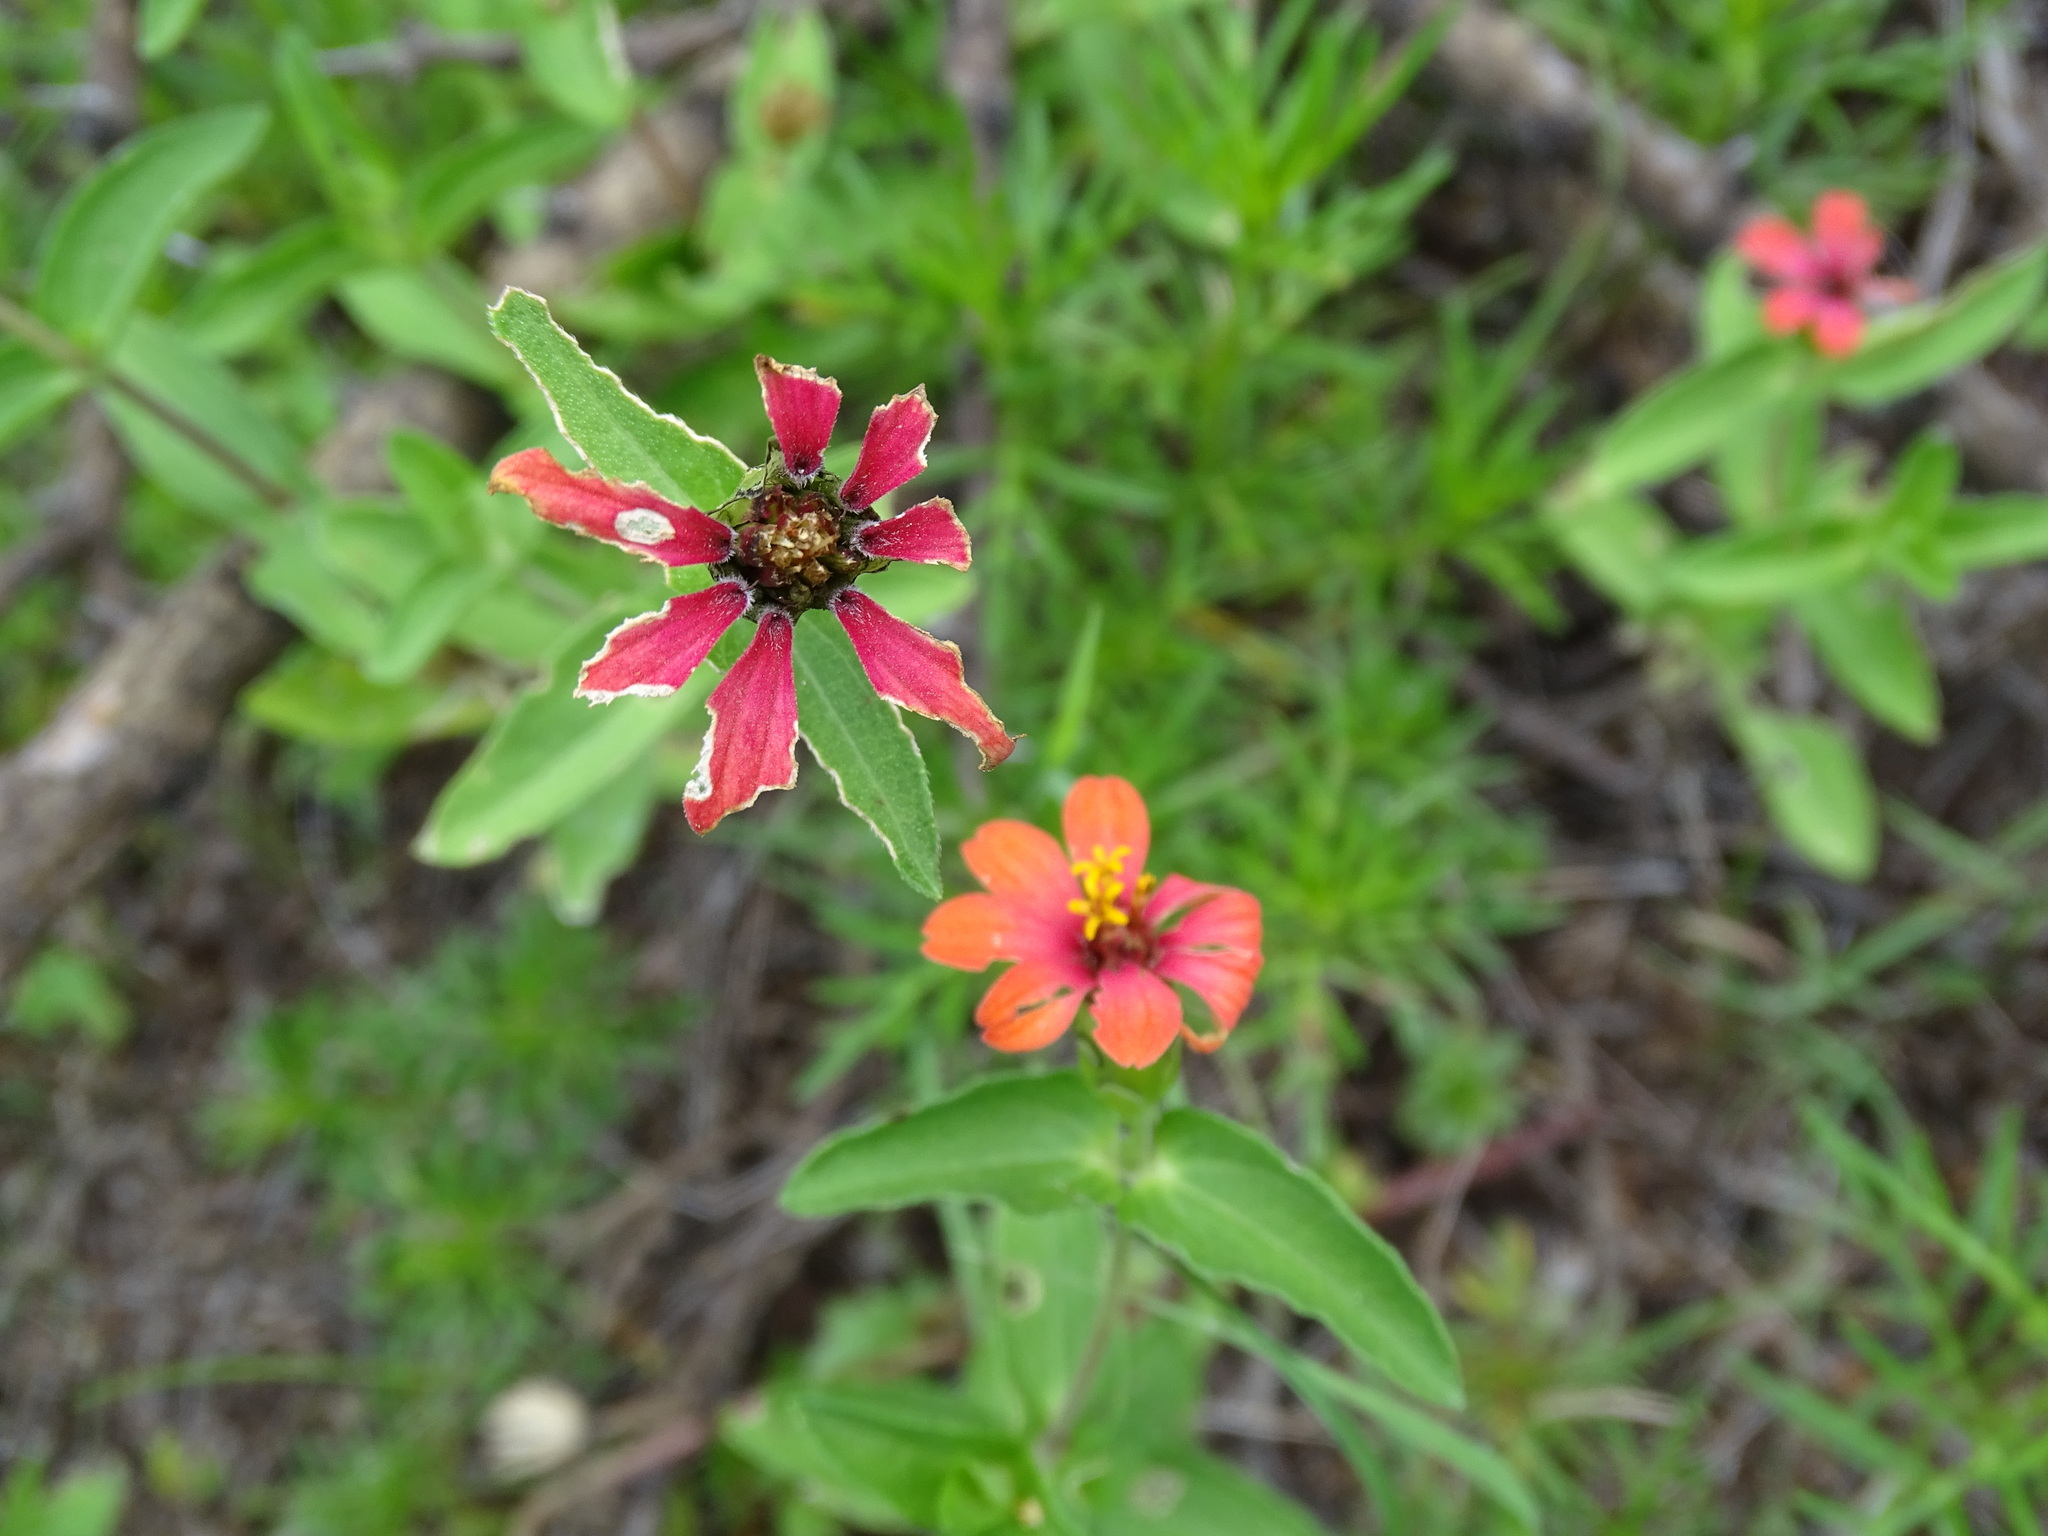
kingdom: Plantae
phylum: Tracheophyta
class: Magnoliopsida
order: Asterales
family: Asteraceae
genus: Zinnia
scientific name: Zinnia peruviana
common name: Peruvian zinnia
